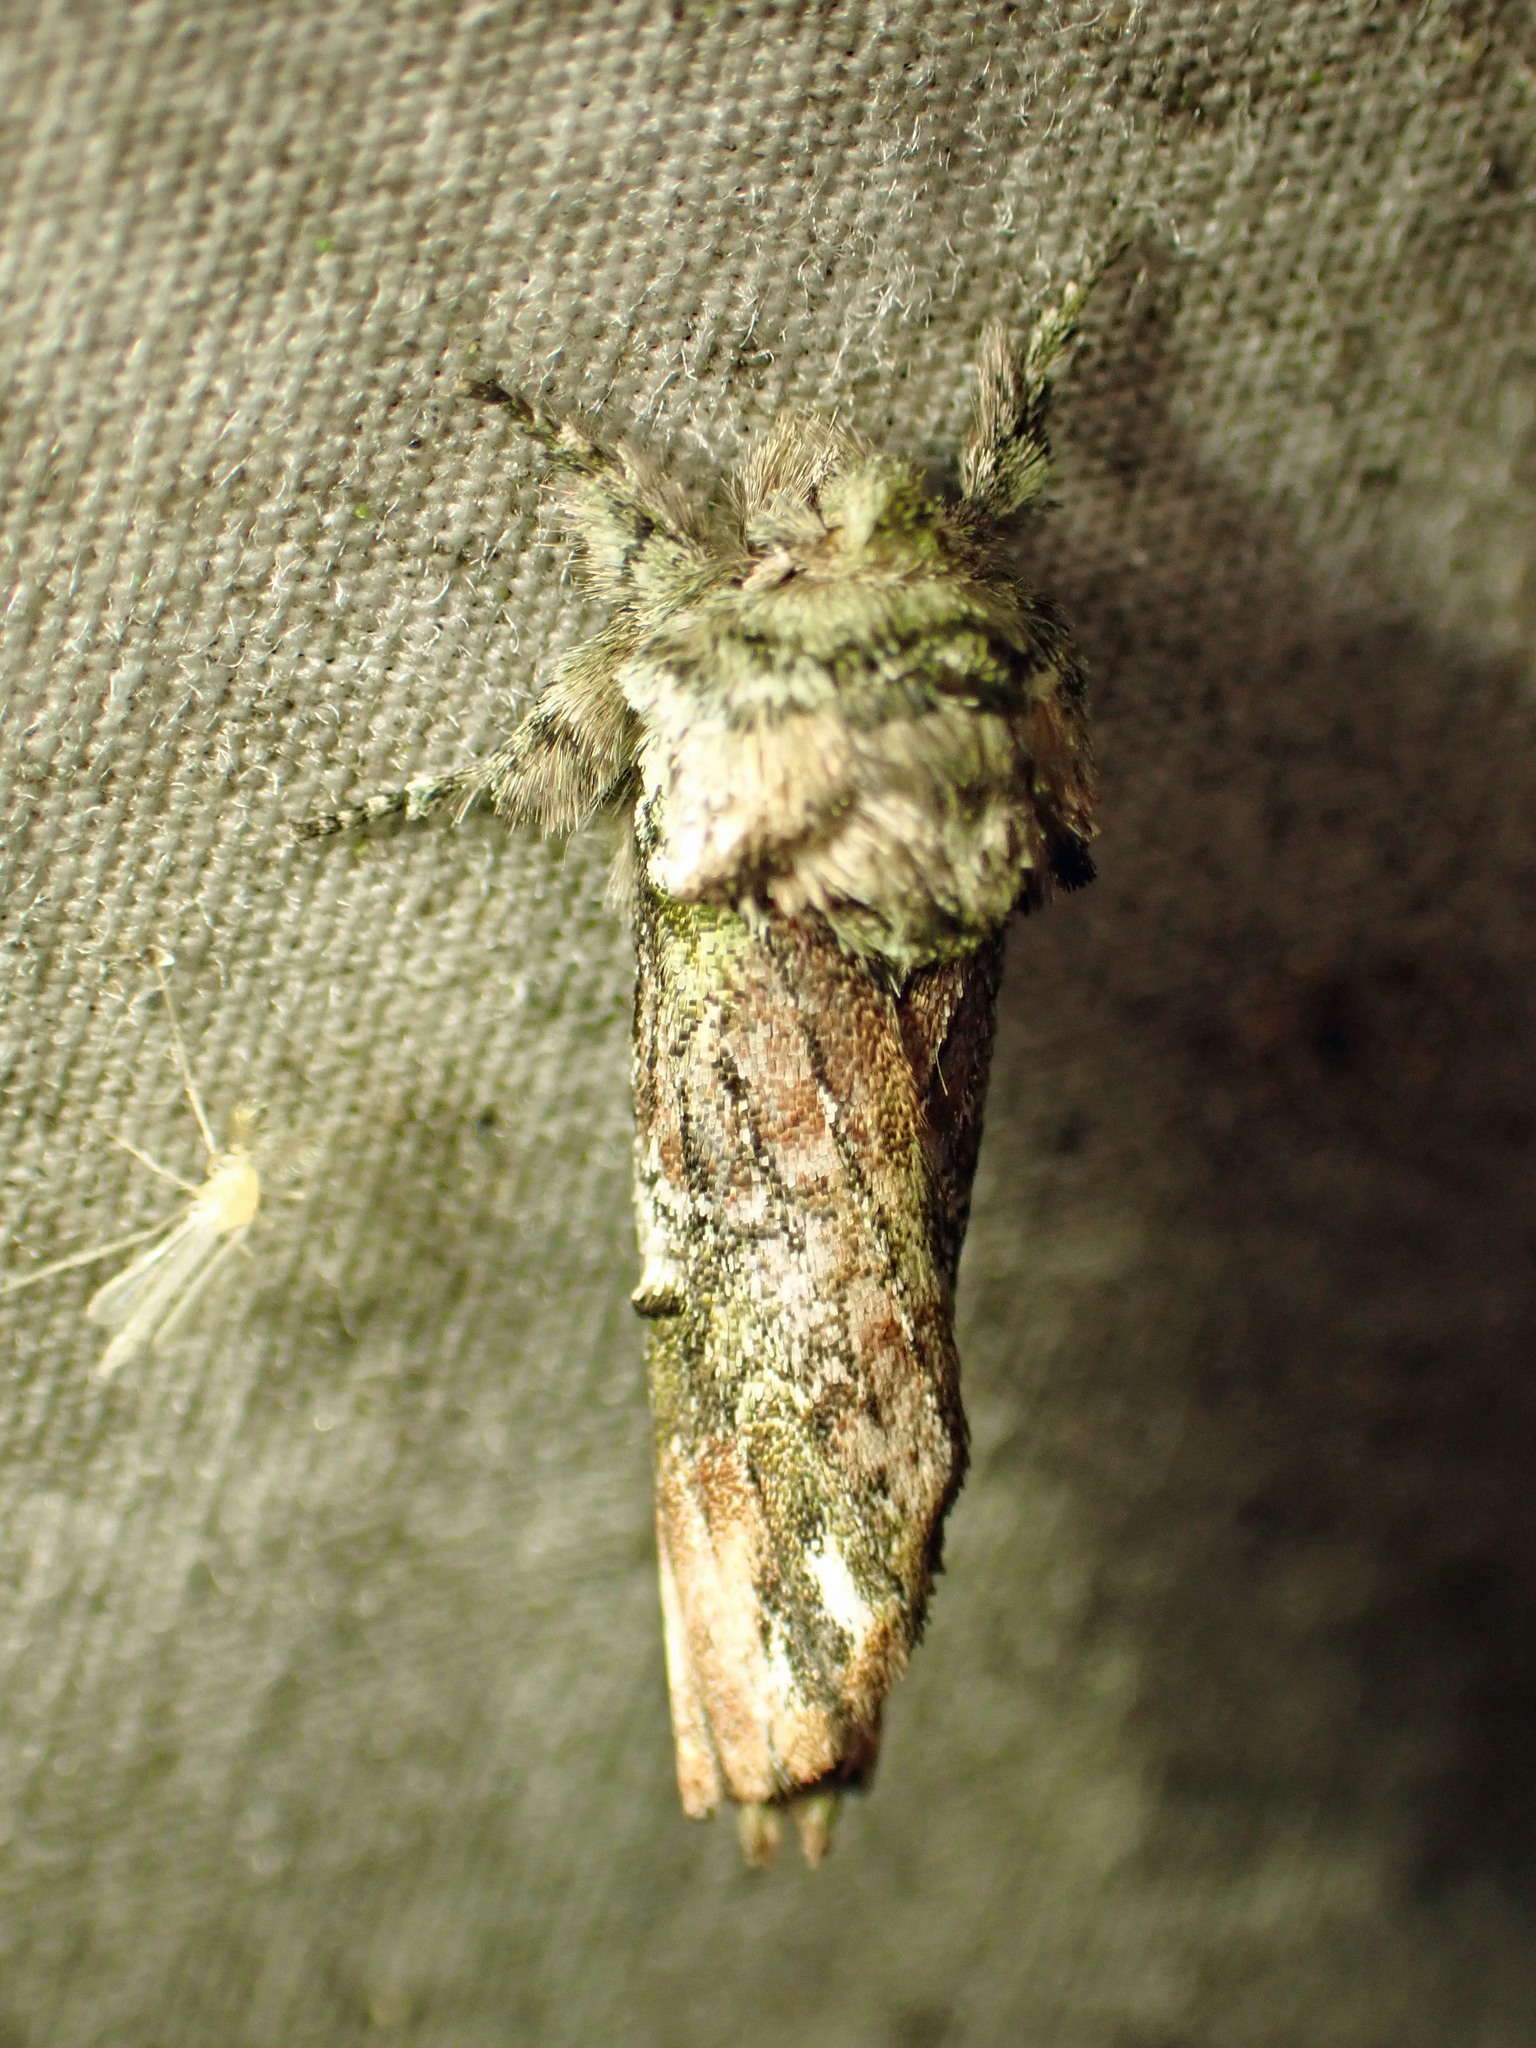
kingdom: Animalia
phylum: Arthropoda
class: Insecta
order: Lepidoptera
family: Notodontidae
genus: Schizura
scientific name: Schizura
